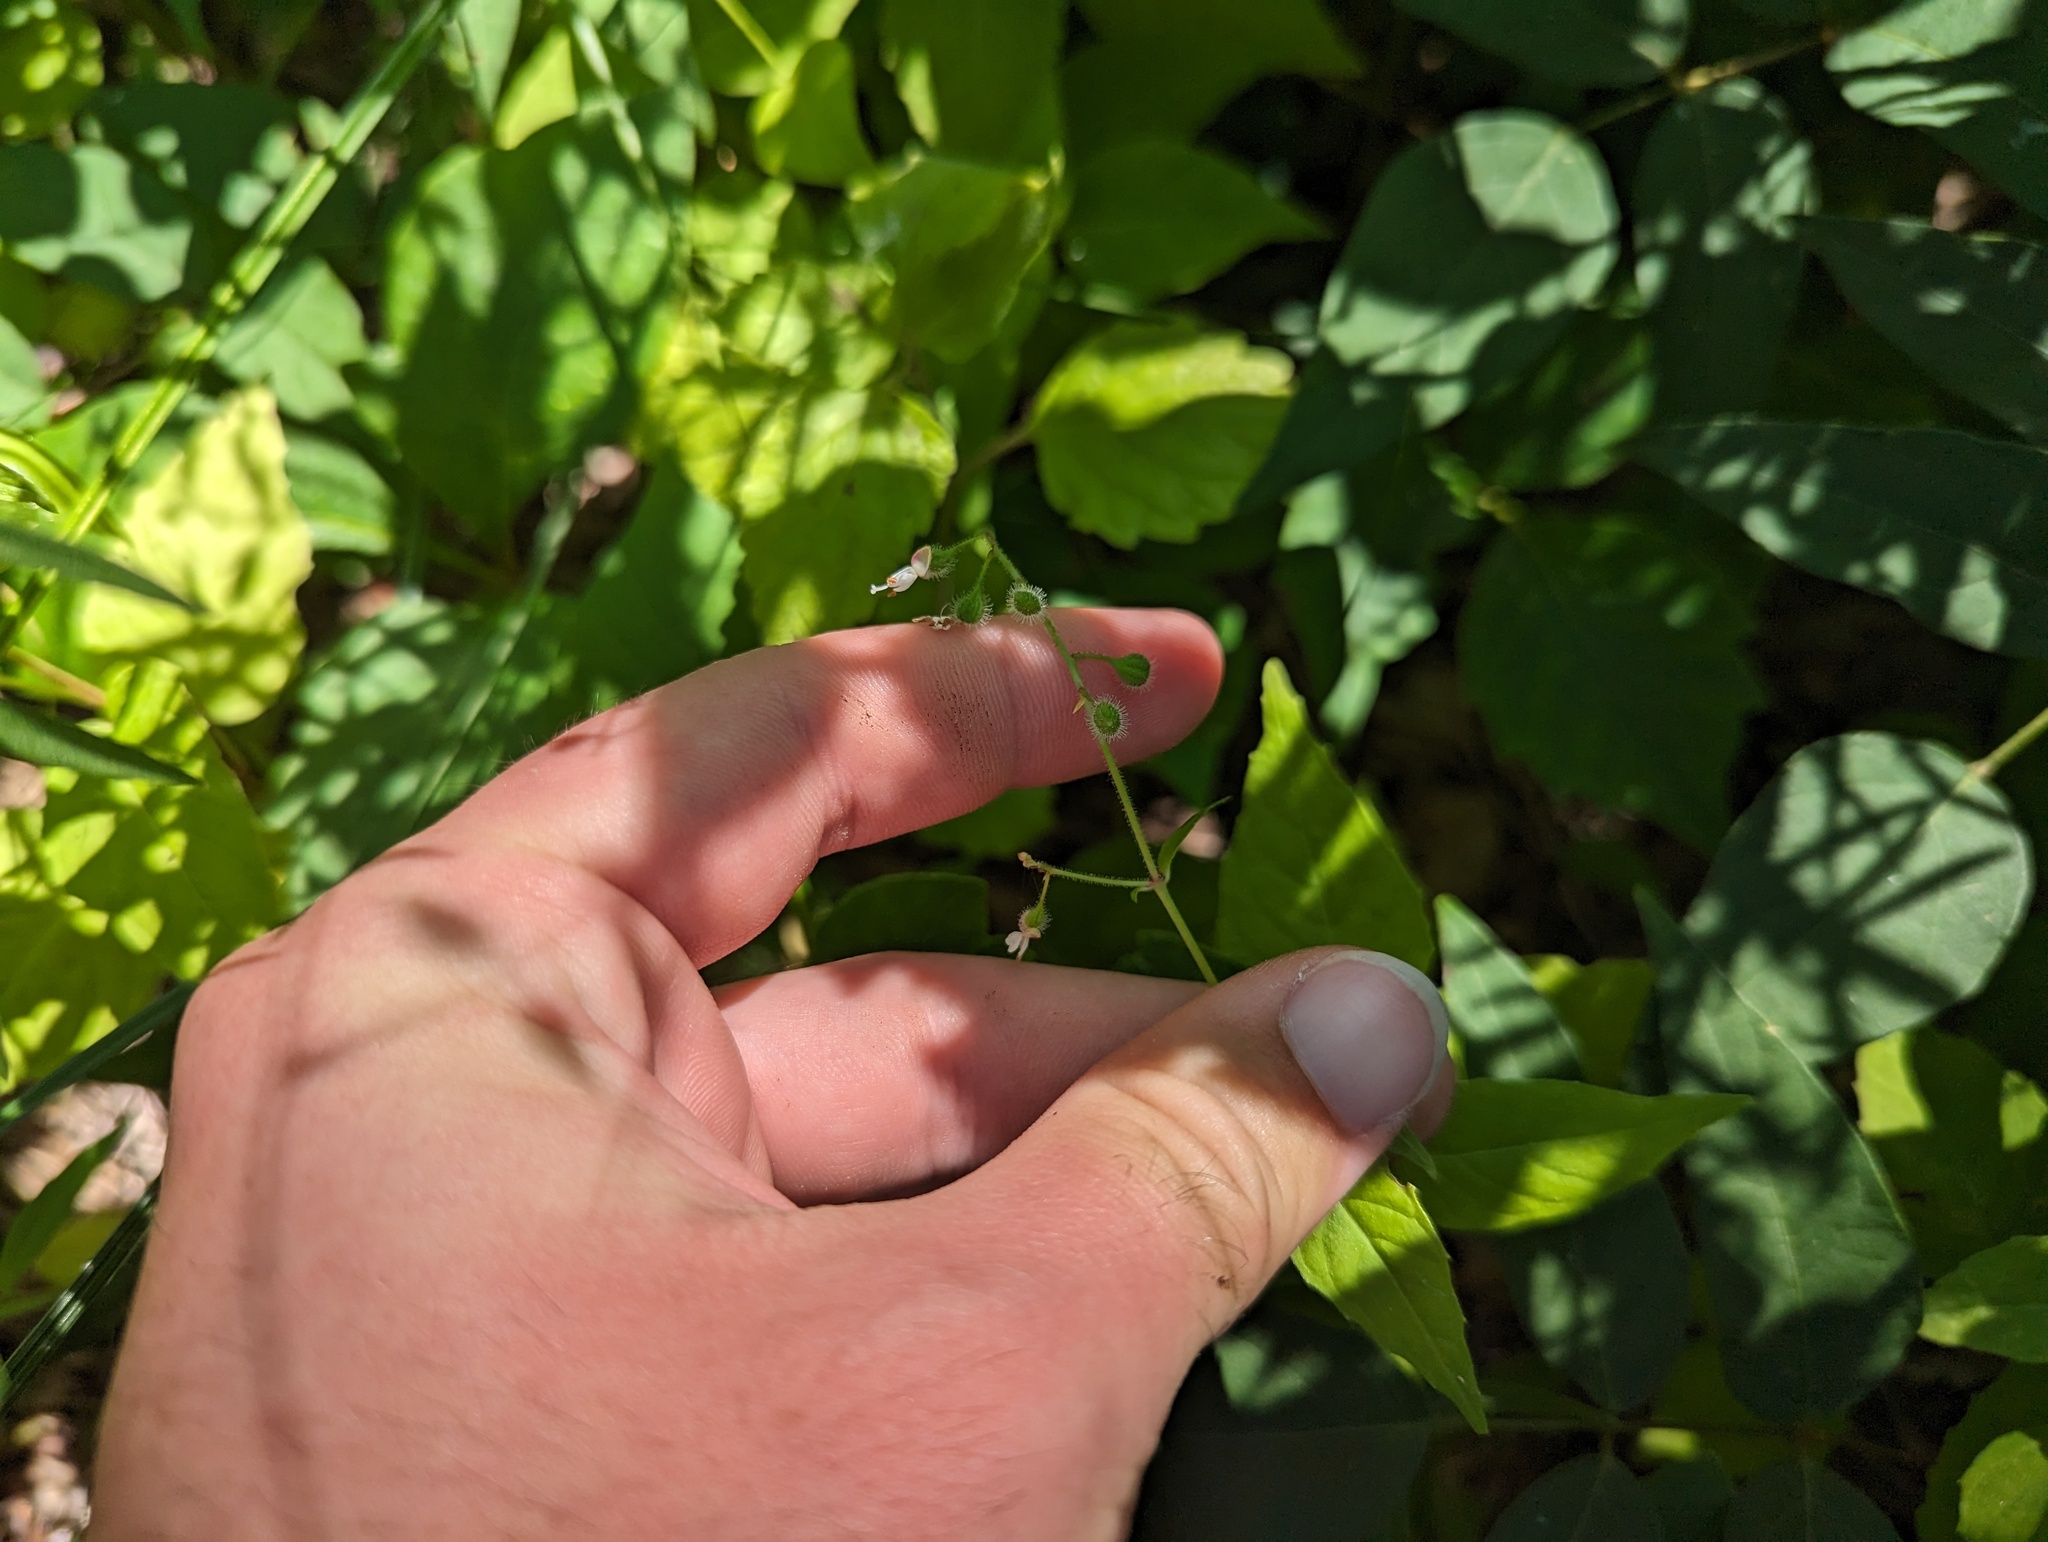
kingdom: Plantae
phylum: Tracheophyta
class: Magnoliopsida
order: Myrtales
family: Onagraceae
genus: Circaea
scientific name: Circaea canadensis
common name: Broad-leaved enchanter's nightshade
